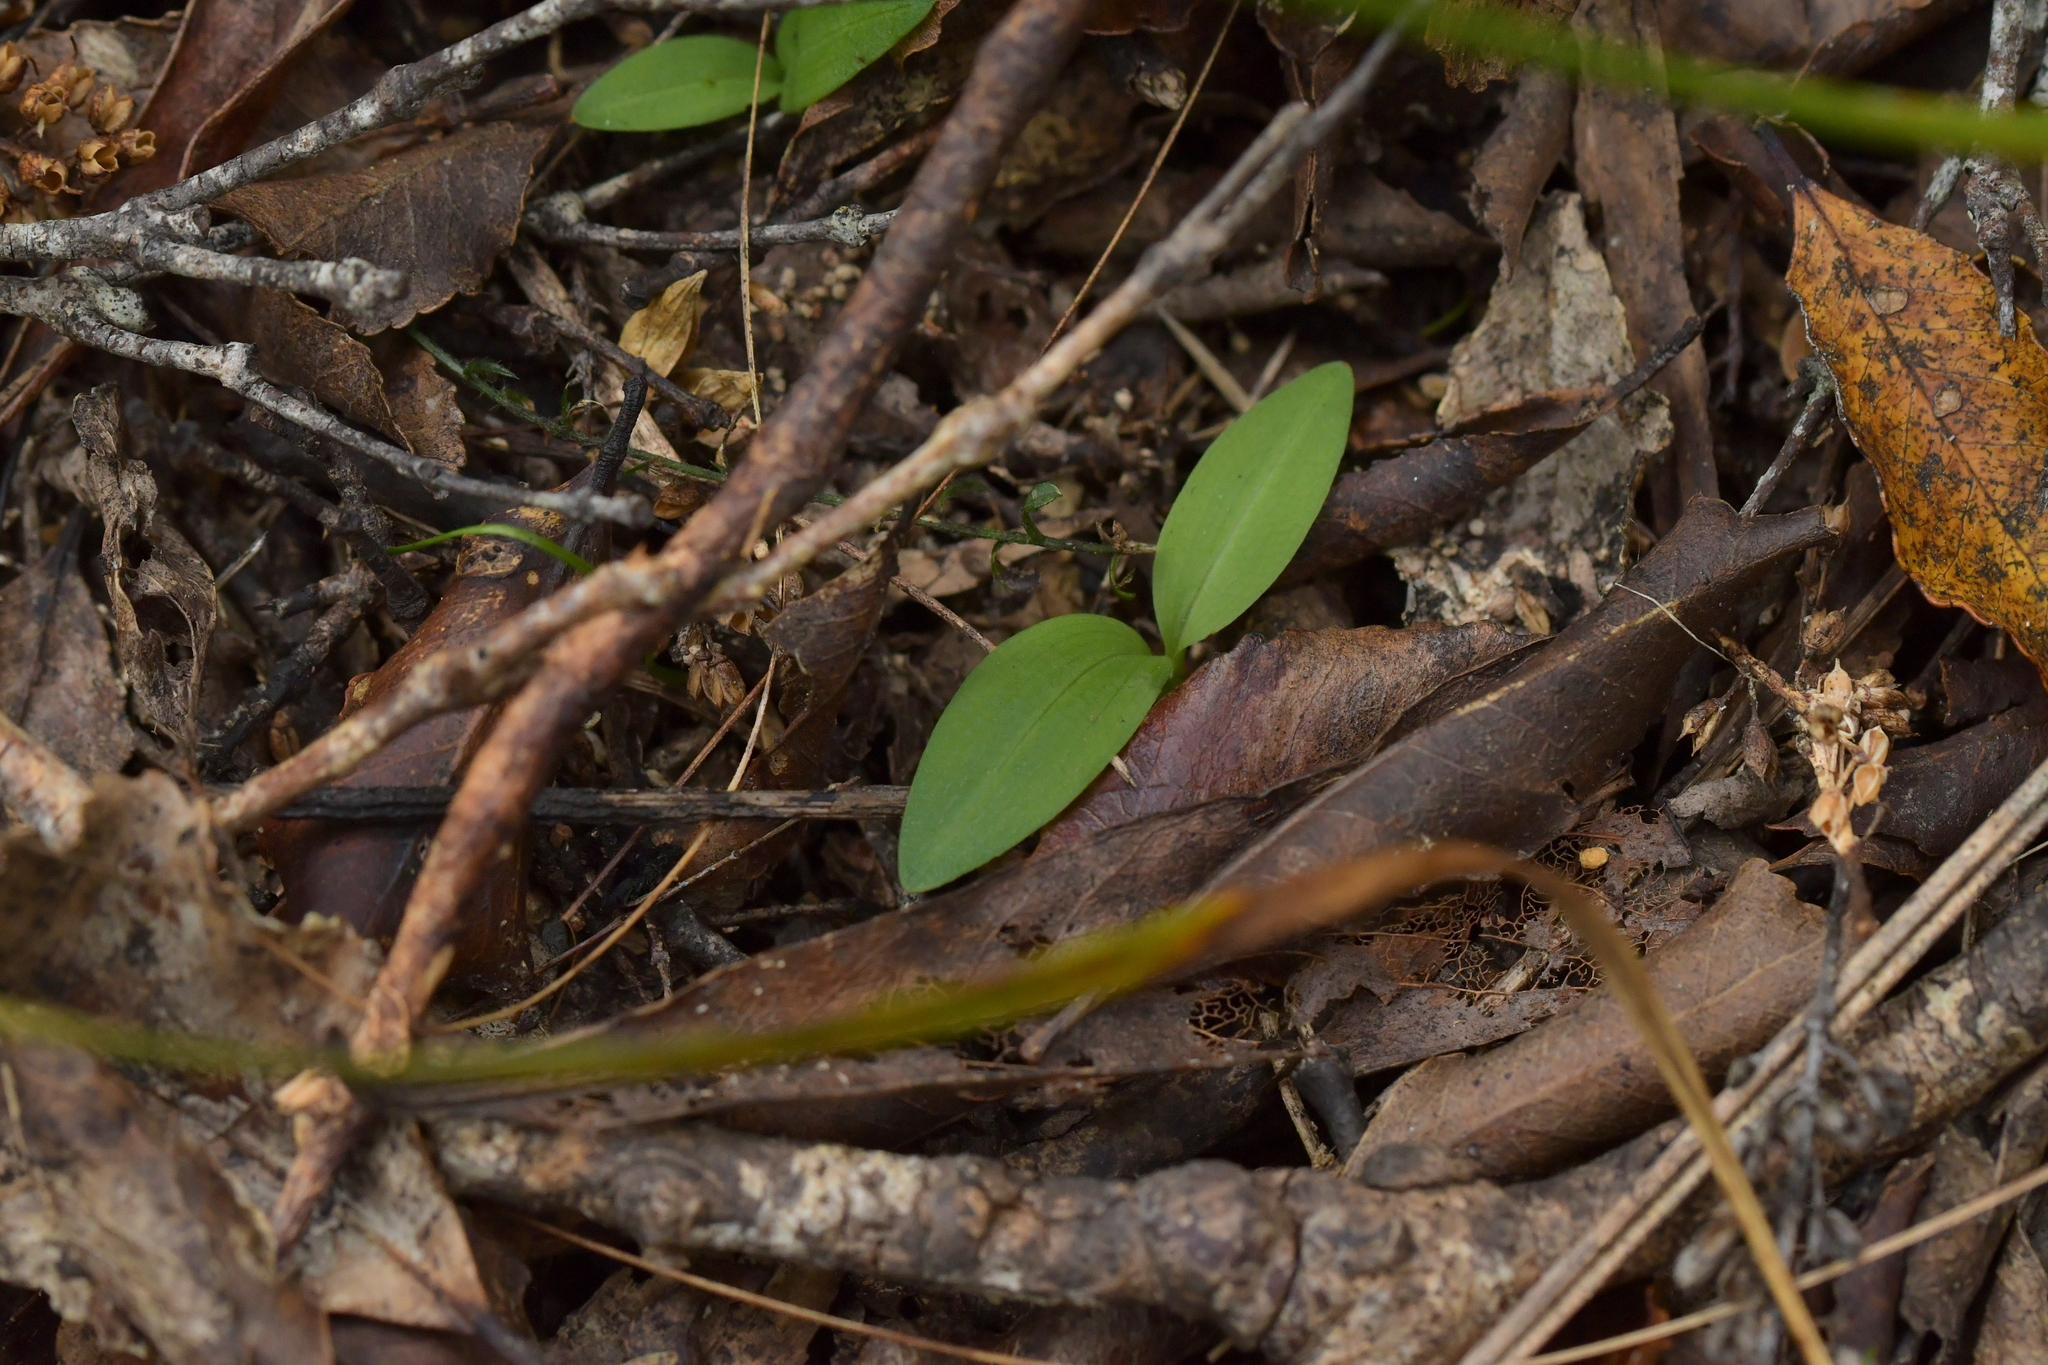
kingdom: Plantae
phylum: Tracheophyta
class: Liliopsida
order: Asparagales
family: Orchidaceae
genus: Chiloglottis
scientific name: Chiloglottis cornuta
